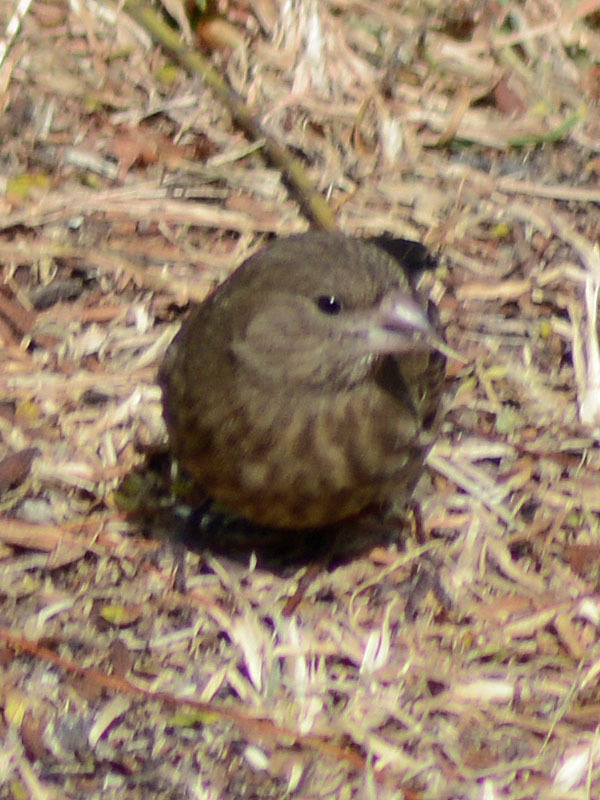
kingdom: Animalia
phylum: Chordata
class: Aves
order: Passeriformes
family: Fringillidae
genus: Haemorhous
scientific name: Haemorhous mexicanus
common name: House finch
